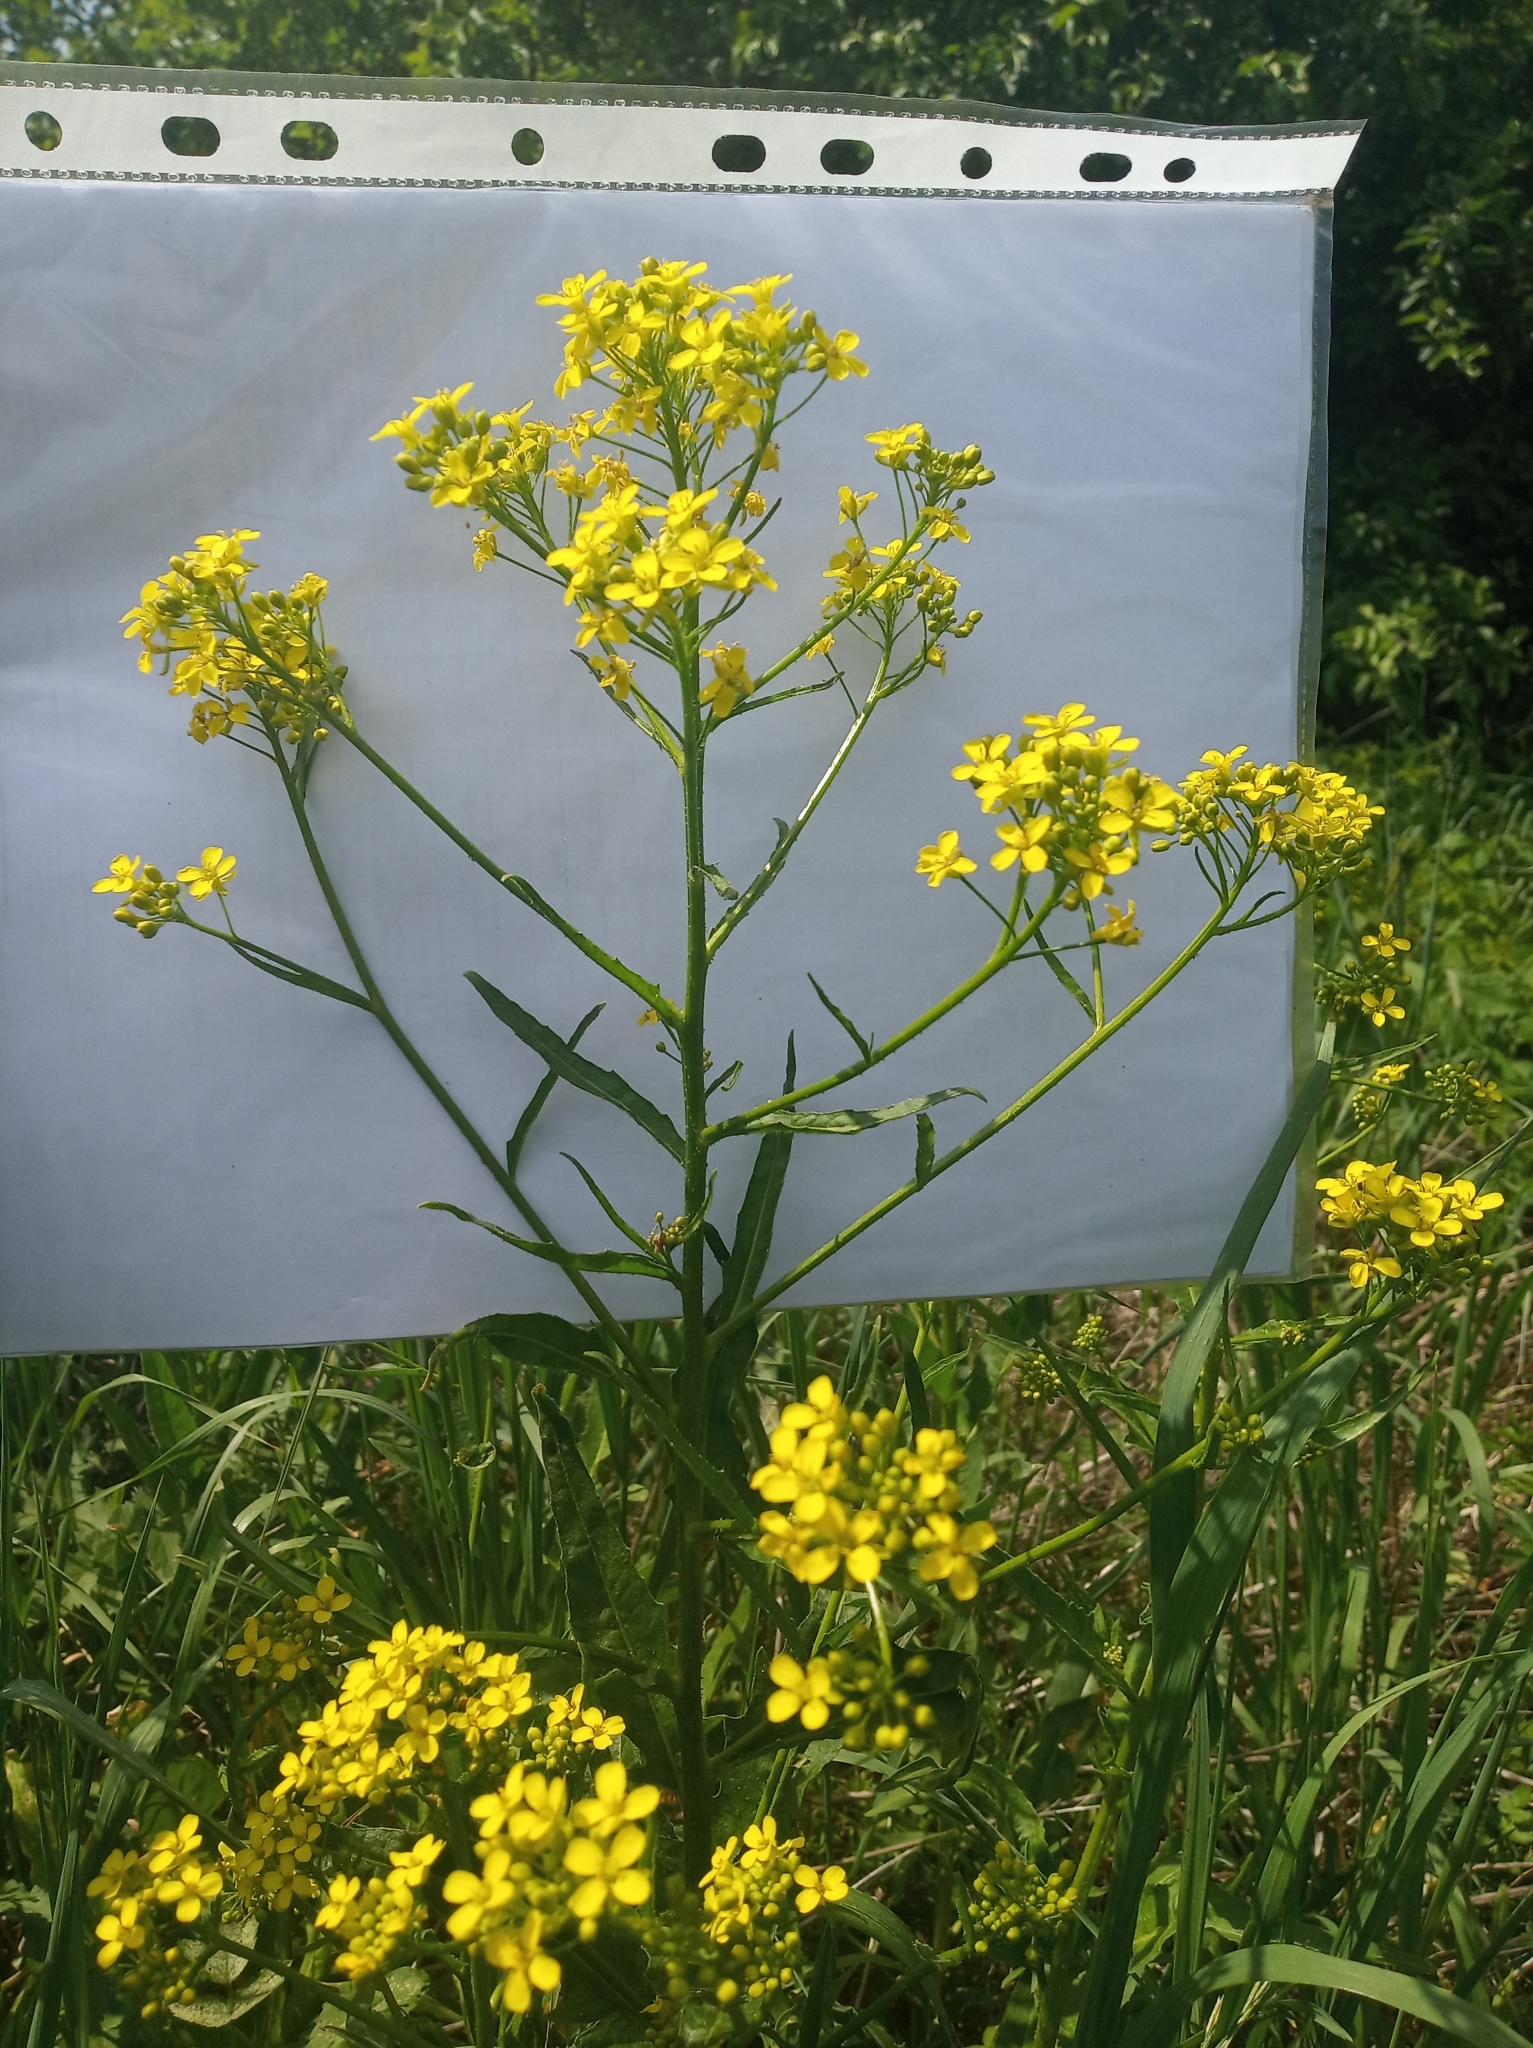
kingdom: Plantae
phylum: Tracheophyta
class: Magnoliopsida
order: Brassicales
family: Brassicaceae
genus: Bunias
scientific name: Bunias orientalis
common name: Warty-cabbage
